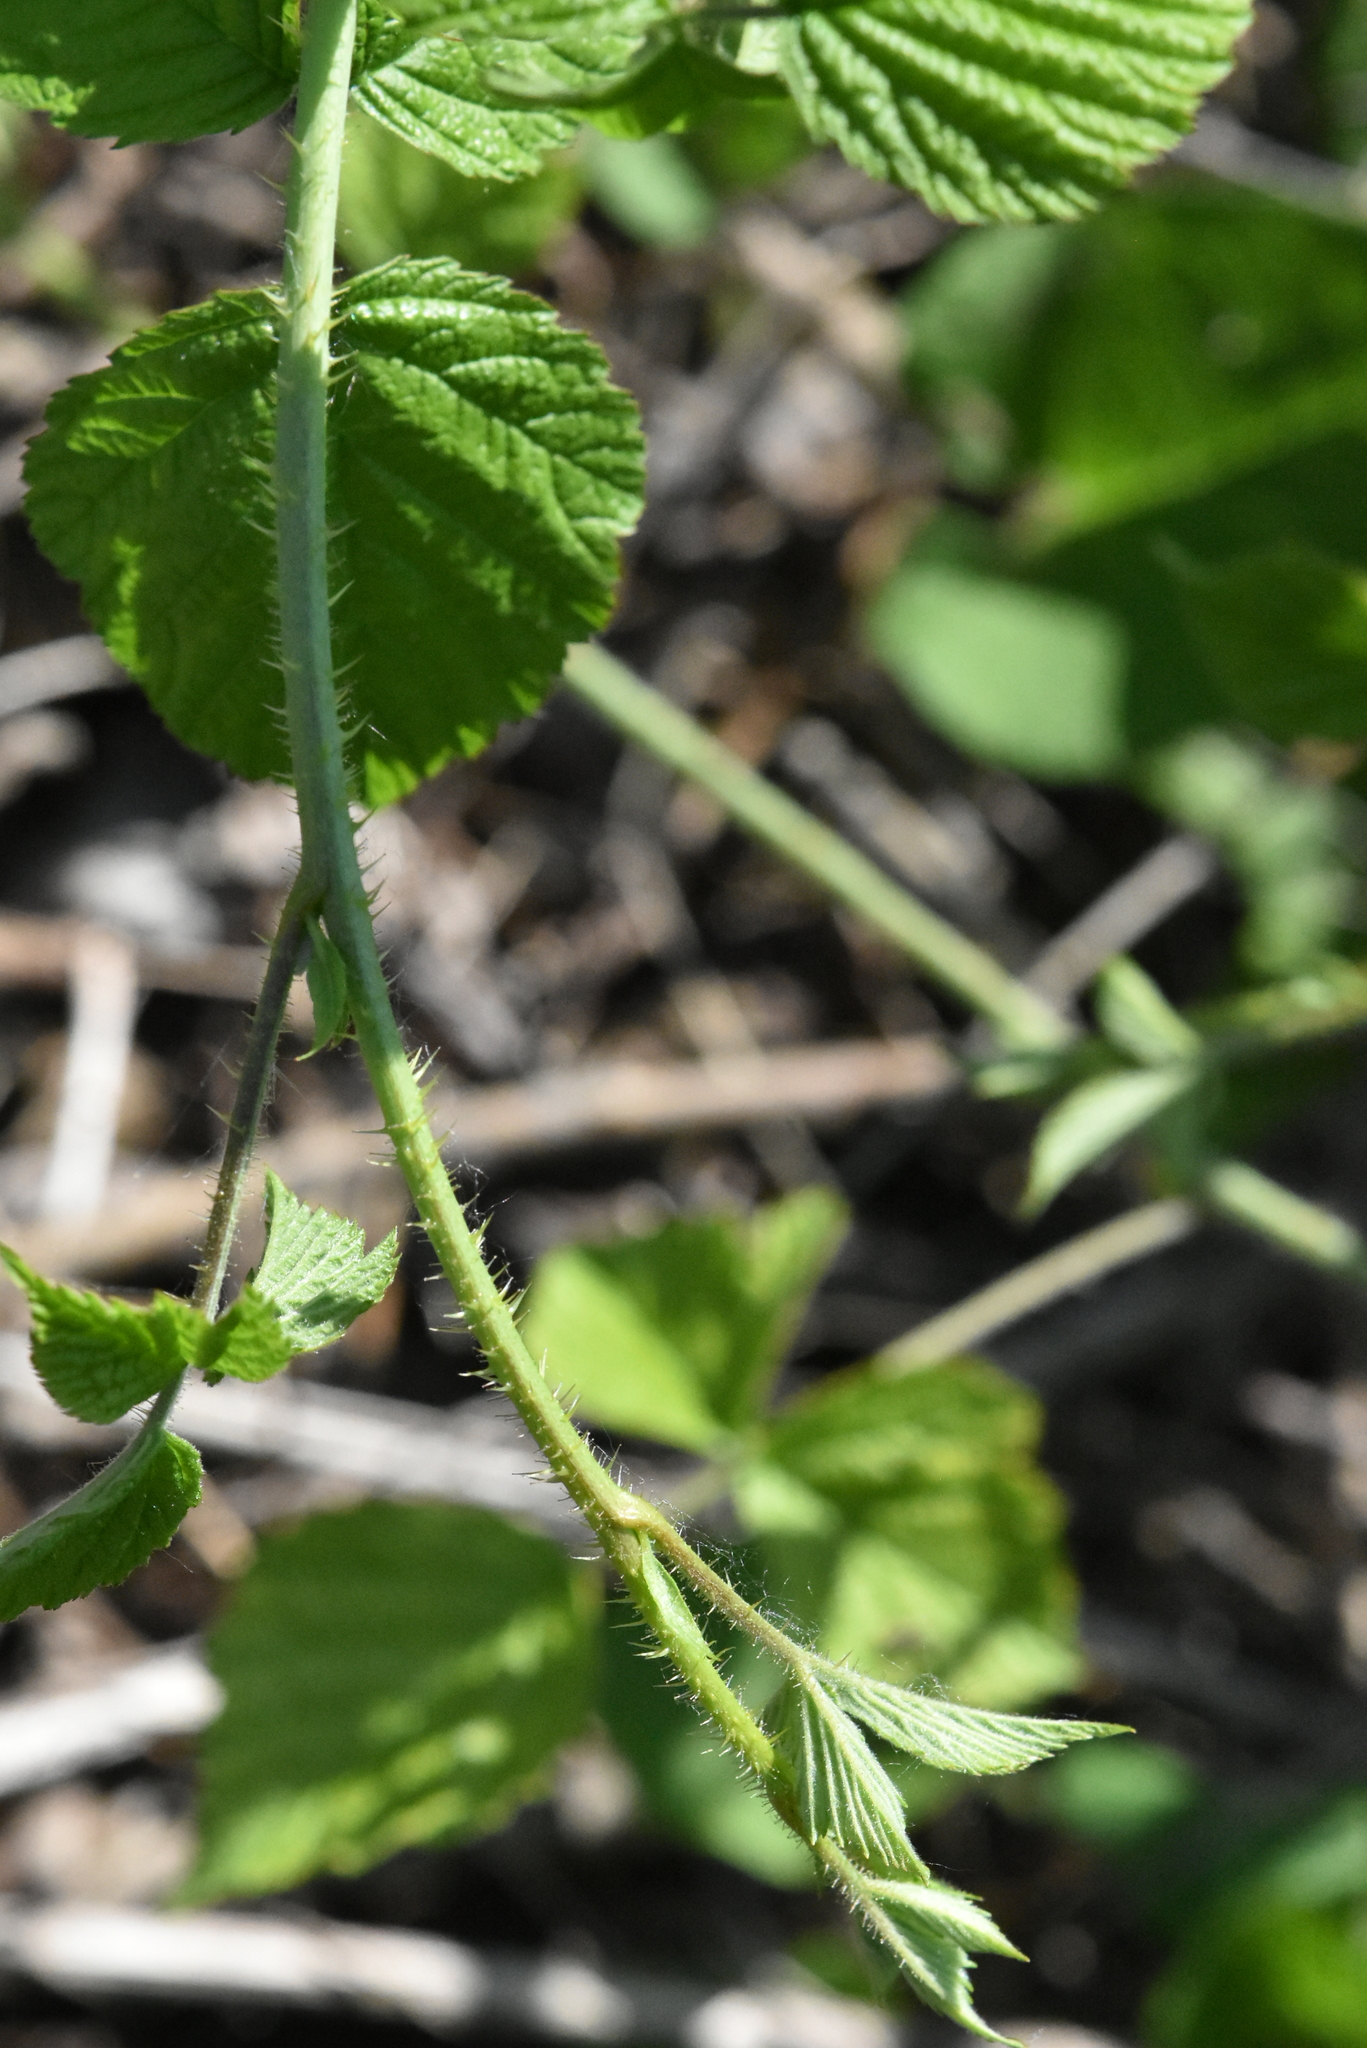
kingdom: Plantae
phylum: Tracheophyta
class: Magnoliopsida
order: Rosales
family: Rosaceae
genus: Rubus
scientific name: Rubus caesius
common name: Dewberry
